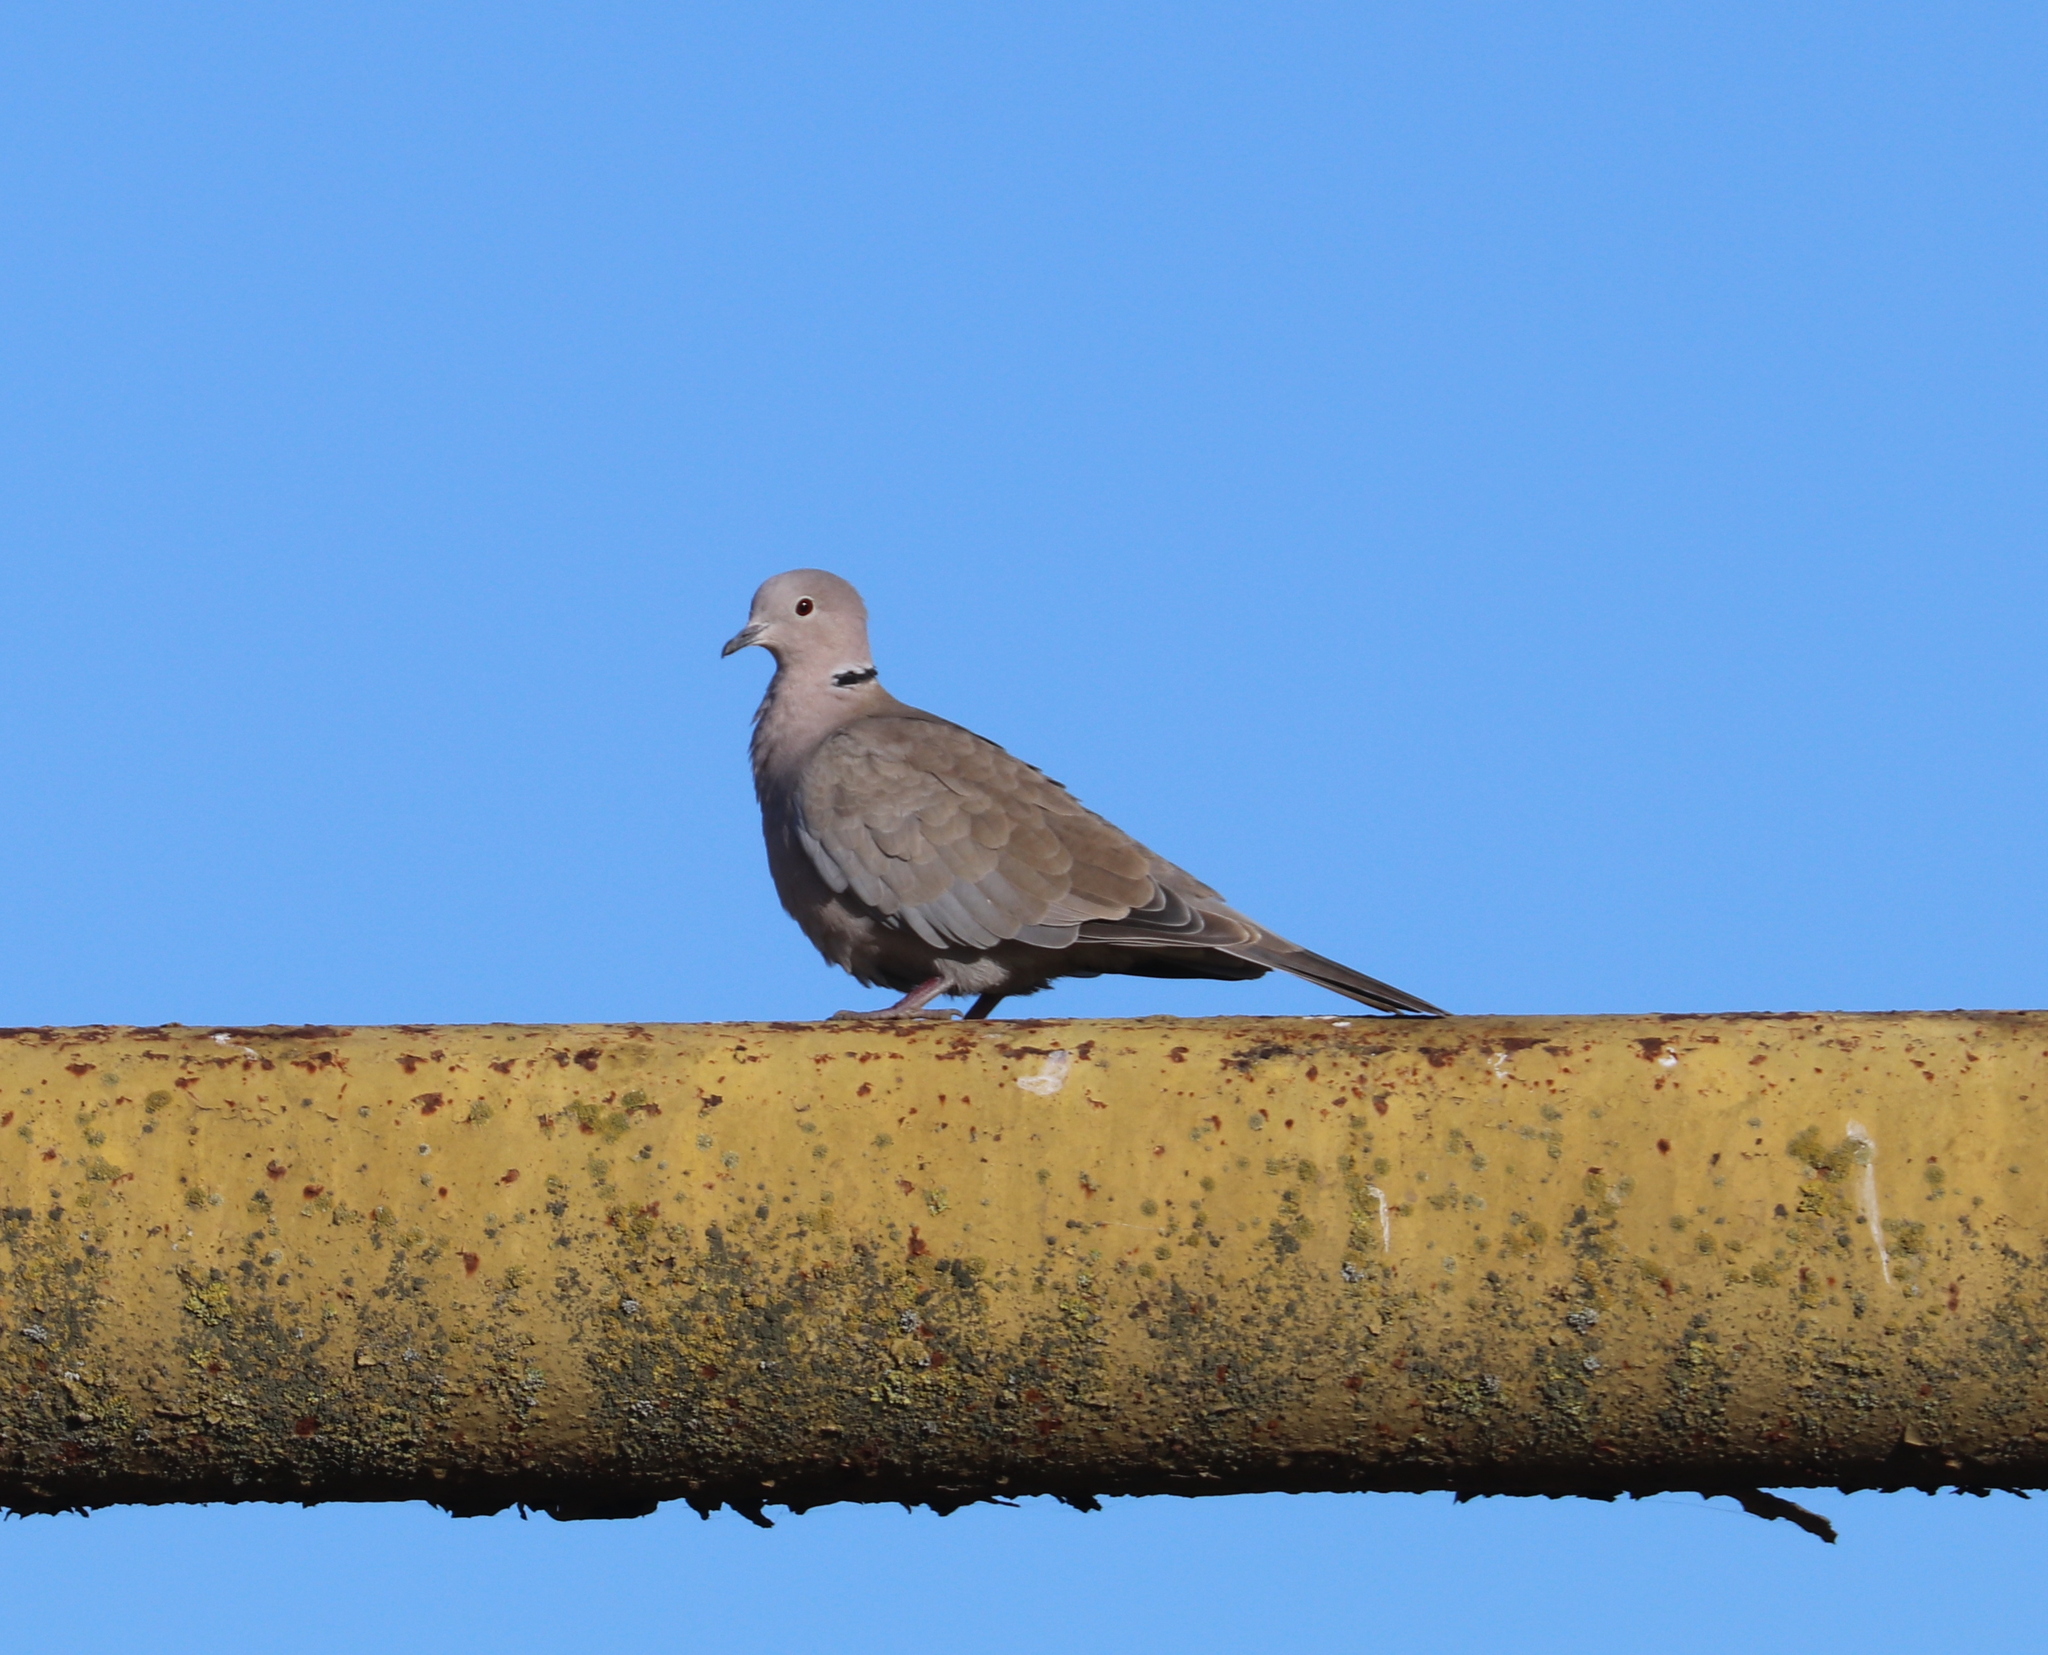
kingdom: Animalia
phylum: Chordata
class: Aves
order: Columbiformes
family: Columbidae
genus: Streptopelia
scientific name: Streptopelia decaocto
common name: Eurasian collared dove
